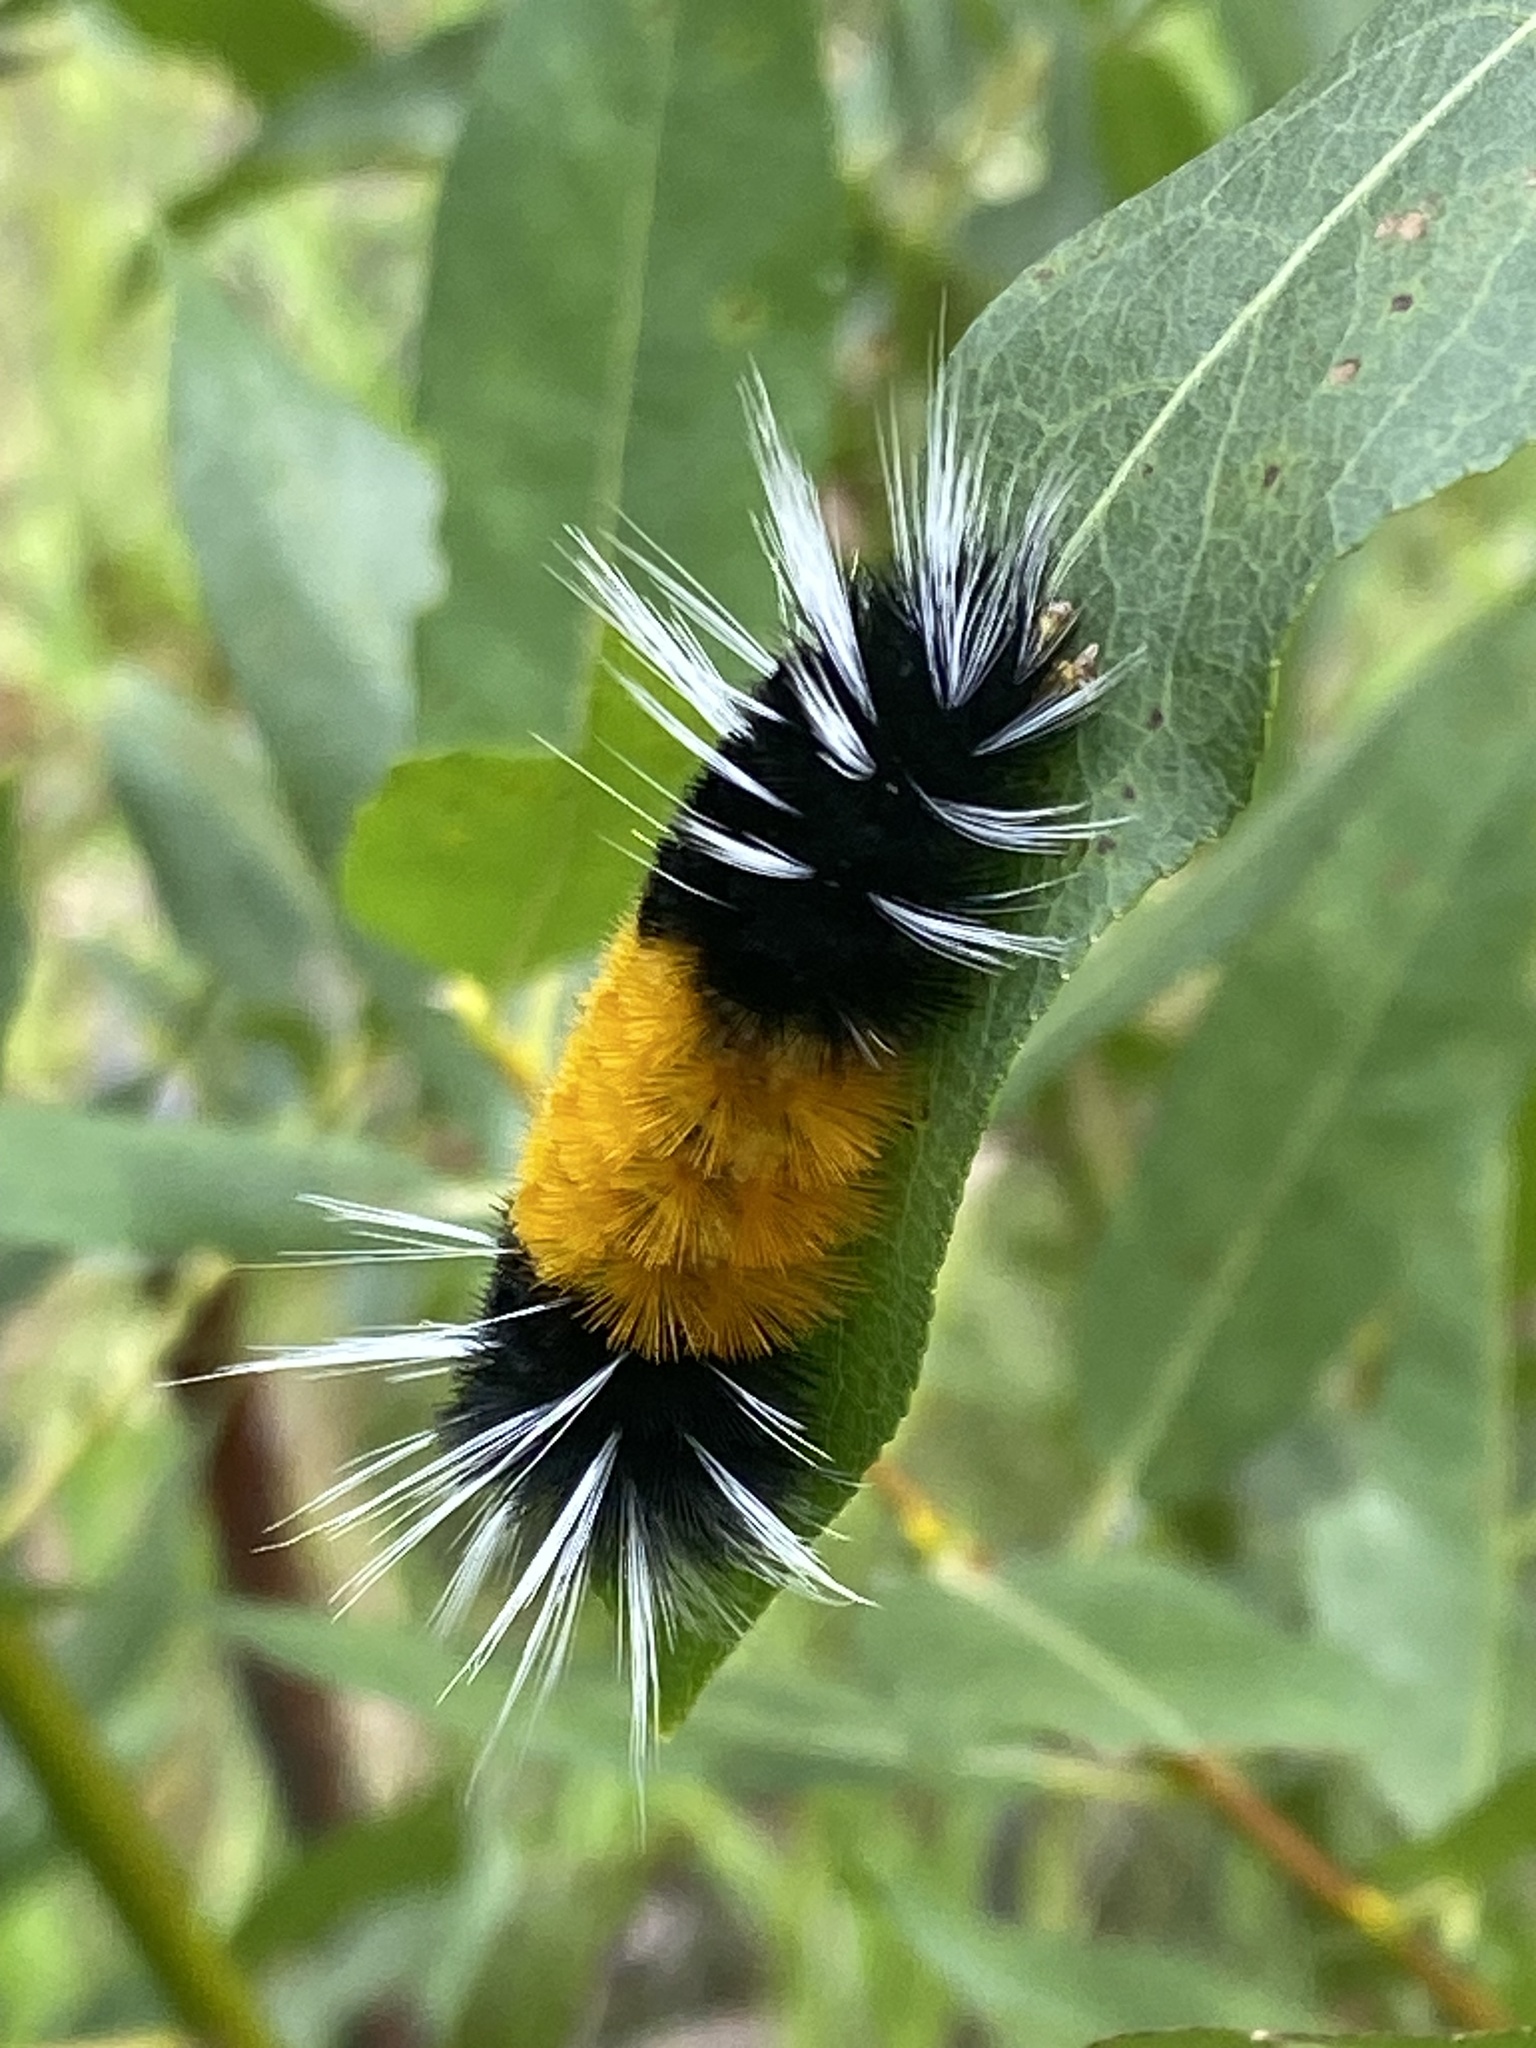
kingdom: Animalia
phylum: Arthropoda
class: Insecta
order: Lepidoptera
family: Erebidae
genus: Lophocampa
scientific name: Lophocampa maculata
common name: Spotted tussock moth
